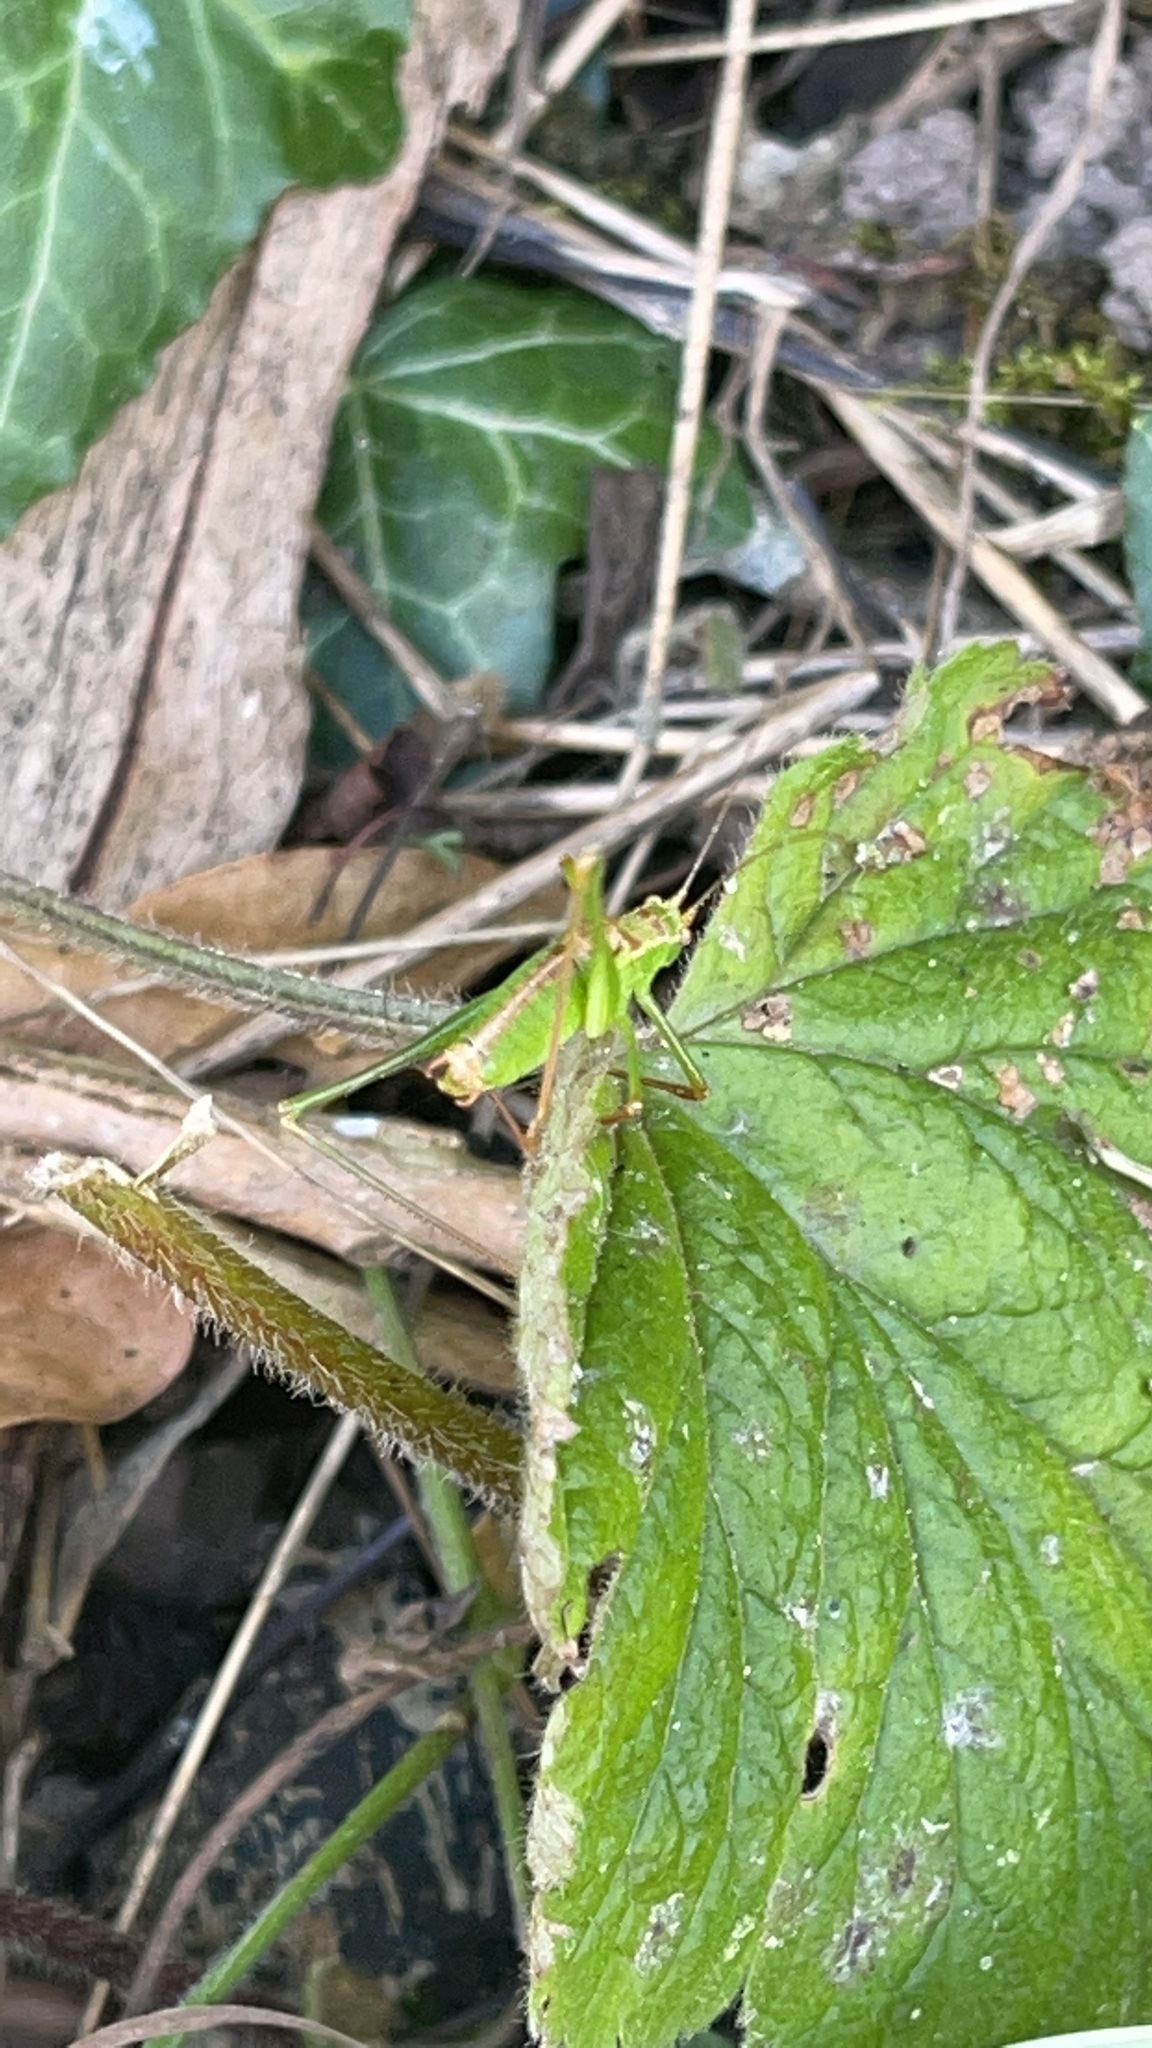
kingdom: Animalia
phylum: Arthropoda
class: Insecta
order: Orthoptera
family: Tettigoniidae
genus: Leptophyes
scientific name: Leptophyes punctatissima
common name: Speckled bush-cricket
